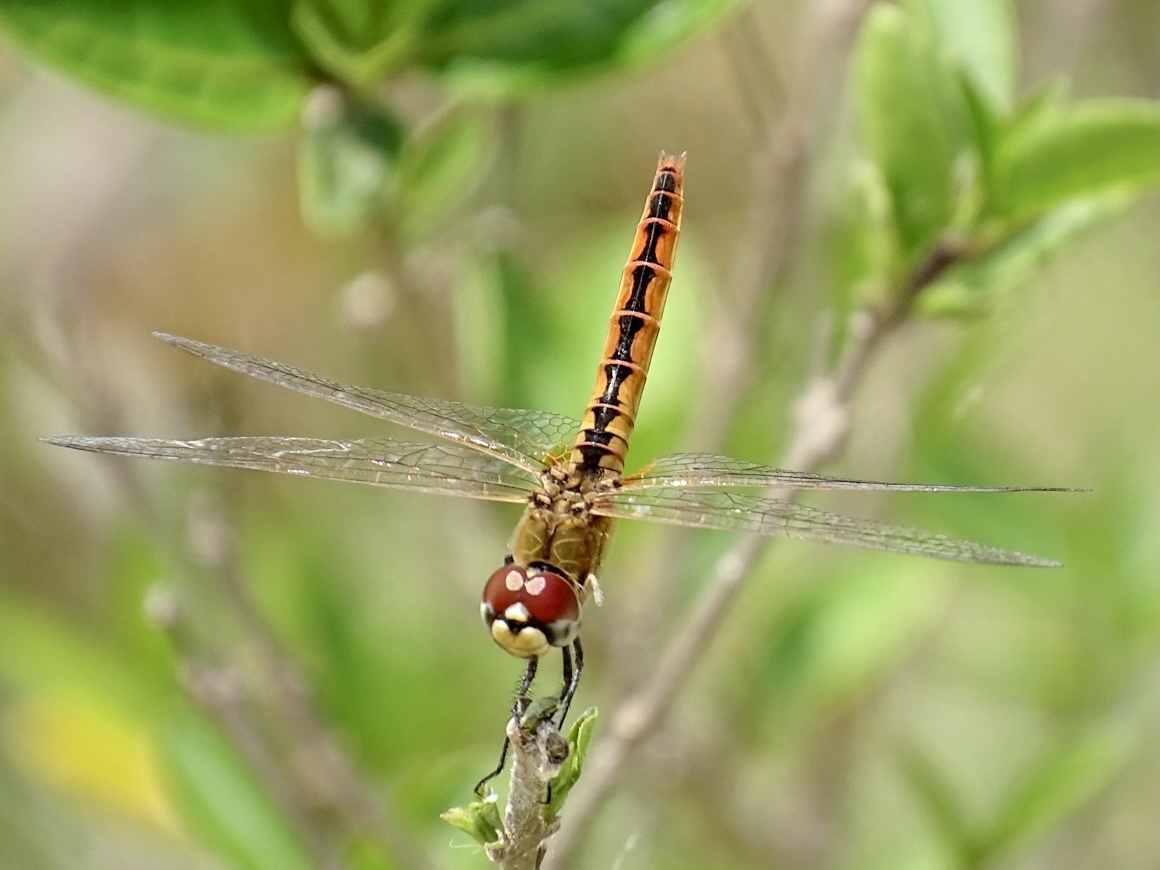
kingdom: Animalia
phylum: Arthropoda
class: Insecta
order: Odonata
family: Libellulidae
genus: Macrodiplax
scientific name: Macrodiplax cora
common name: Coastal glider
